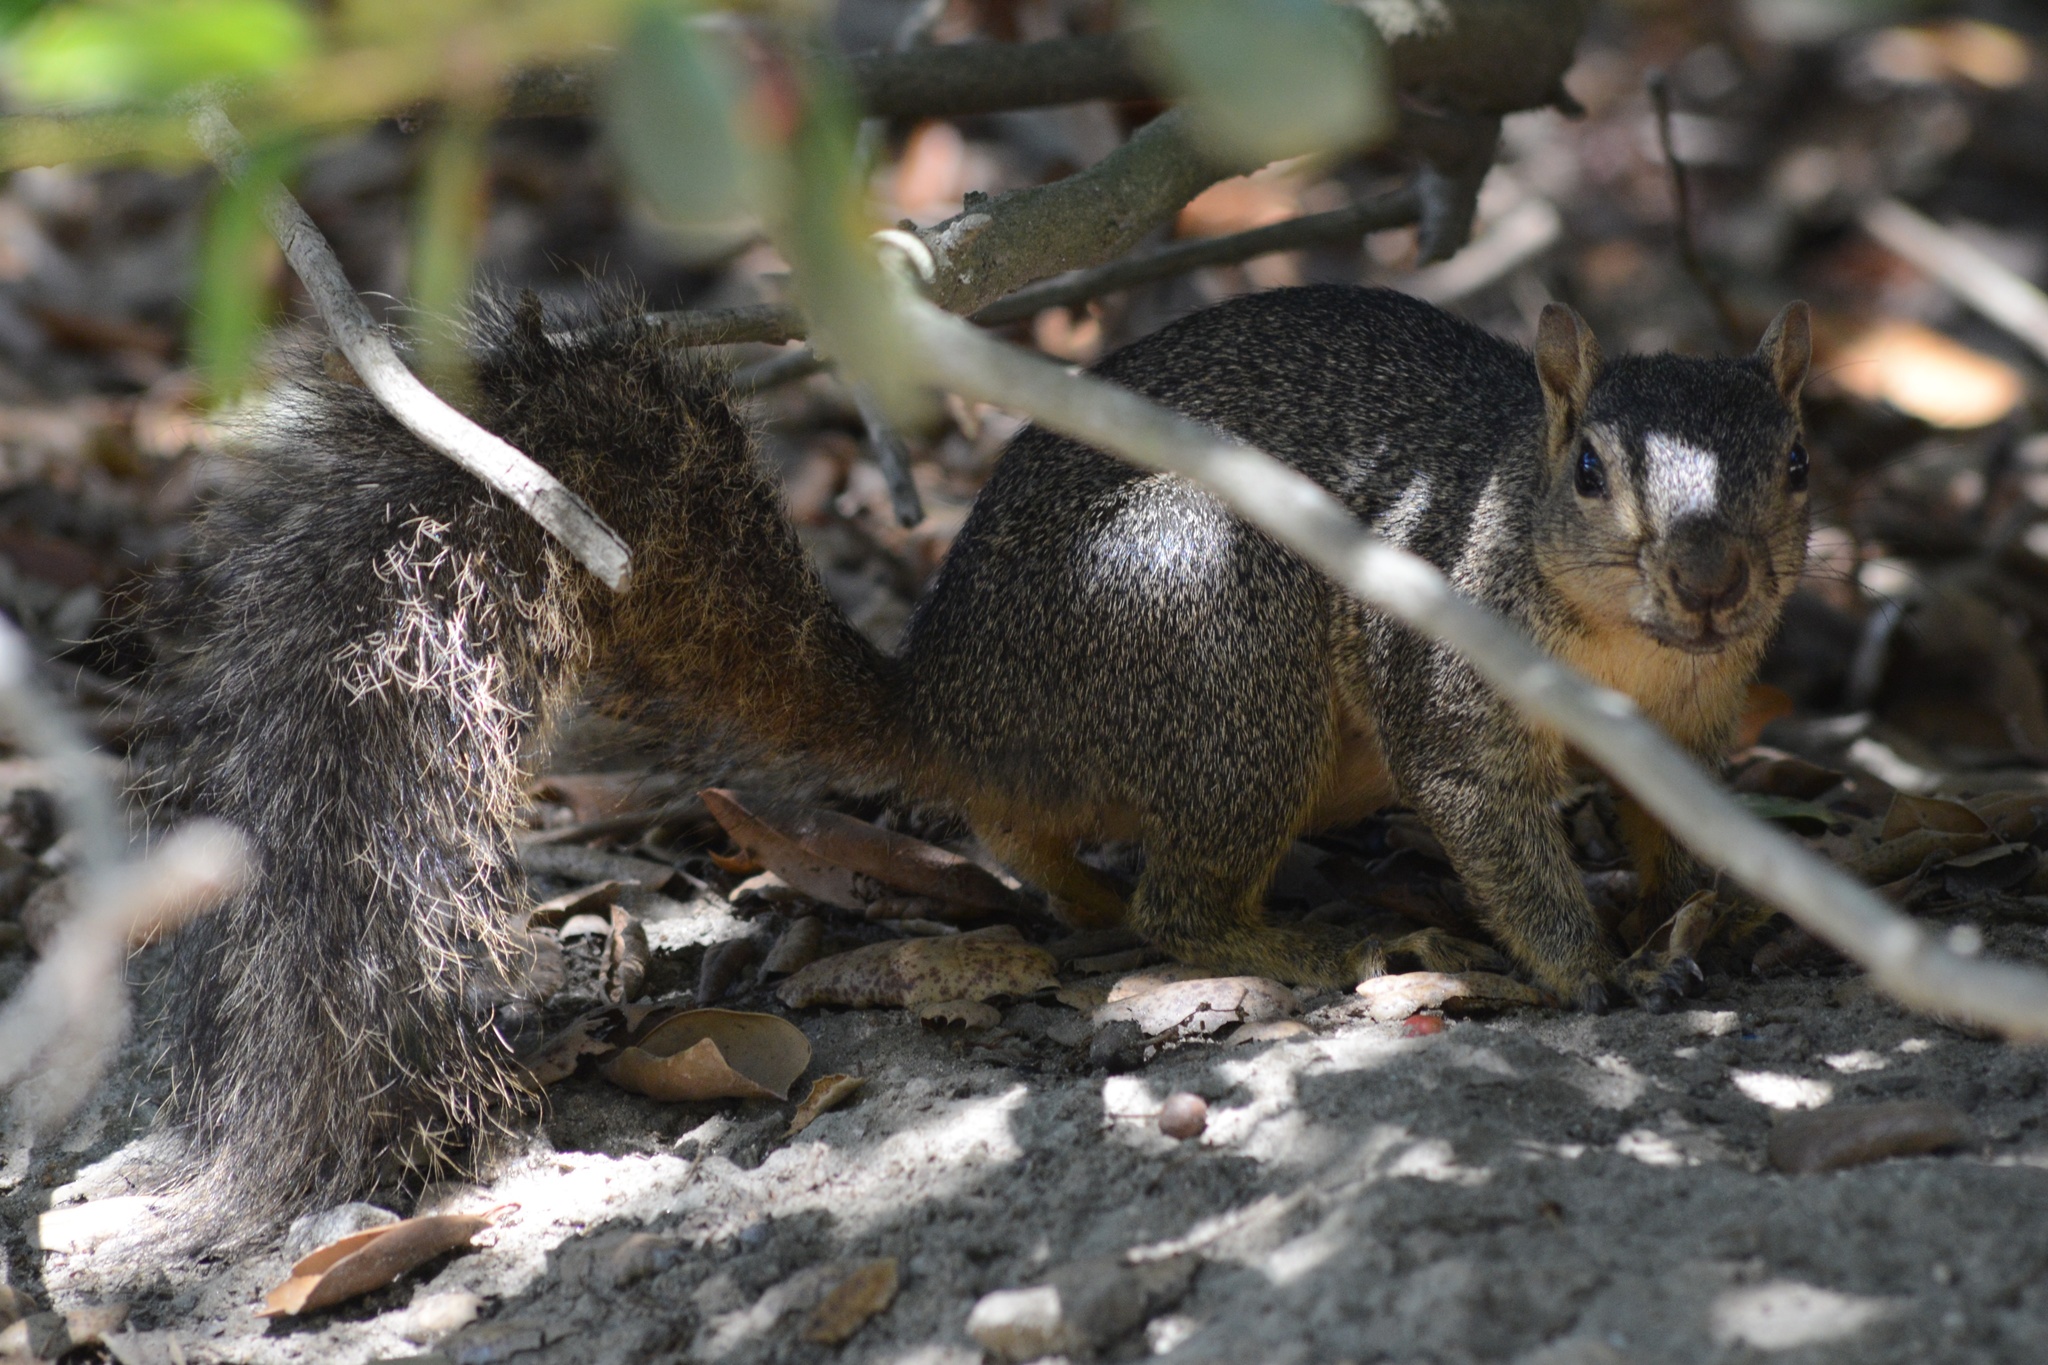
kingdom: Animalia
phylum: Chordata
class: Mammalia
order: Rodentia
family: Sciuridae
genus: Sciurus
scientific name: Sciurus niger
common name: Fox squirrel
